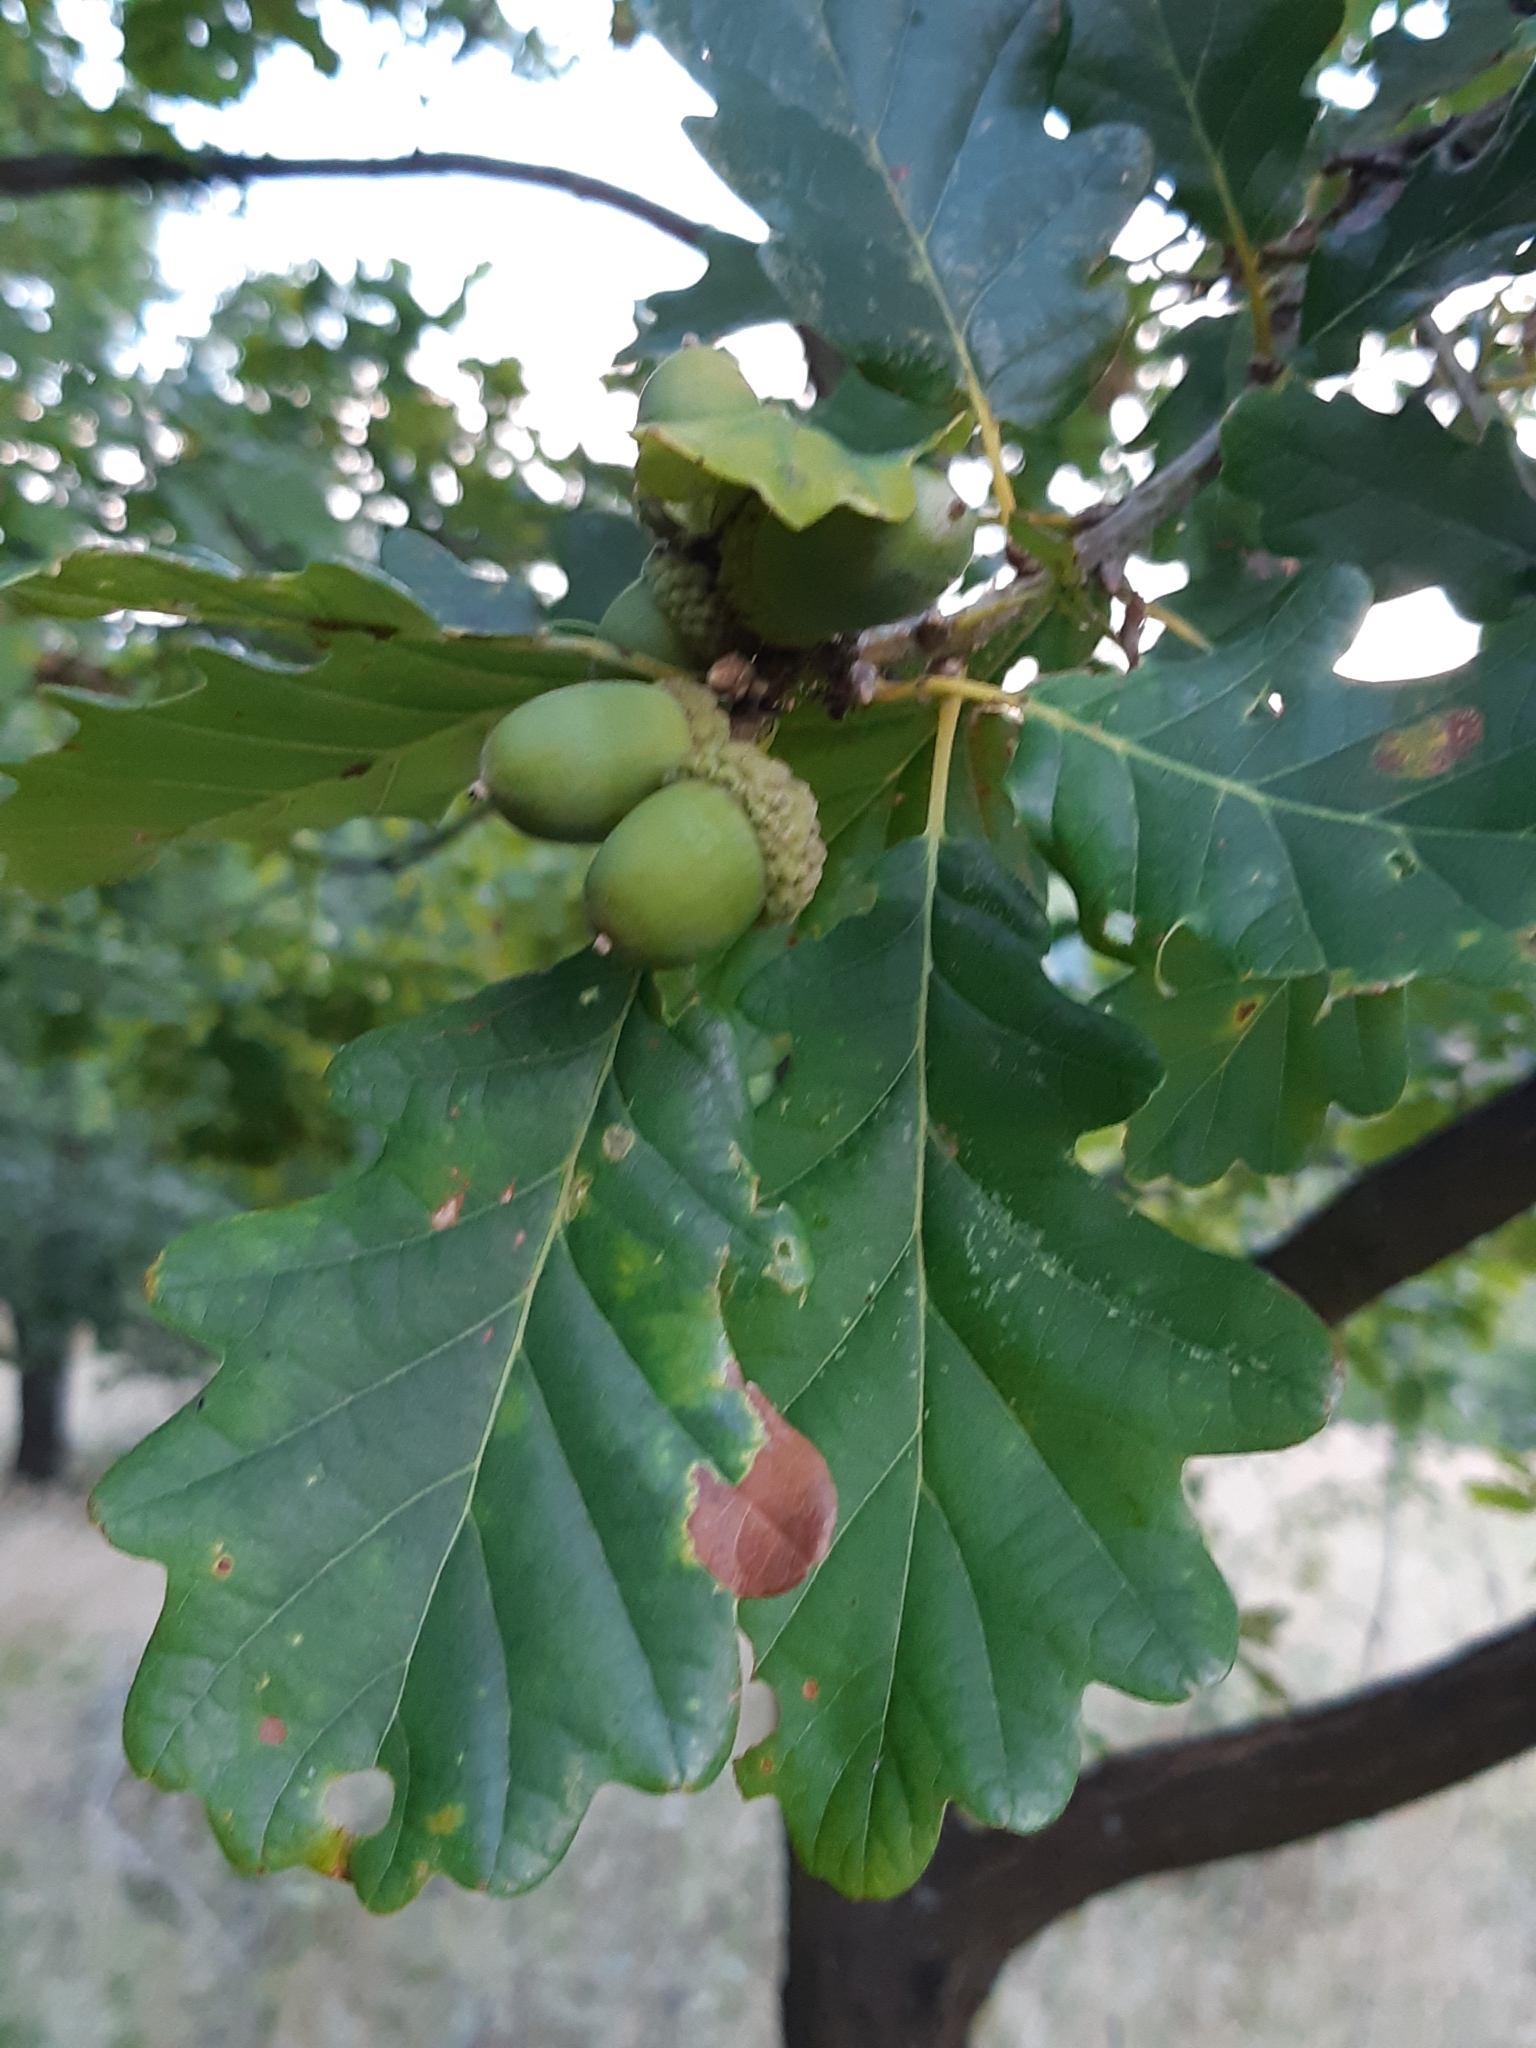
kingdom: Plantae
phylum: Tracheophyta
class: Magnoliopsida
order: Fagales
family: Fagaceae
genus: Quercus
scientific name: Quercus petraea
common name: Sessile oak
